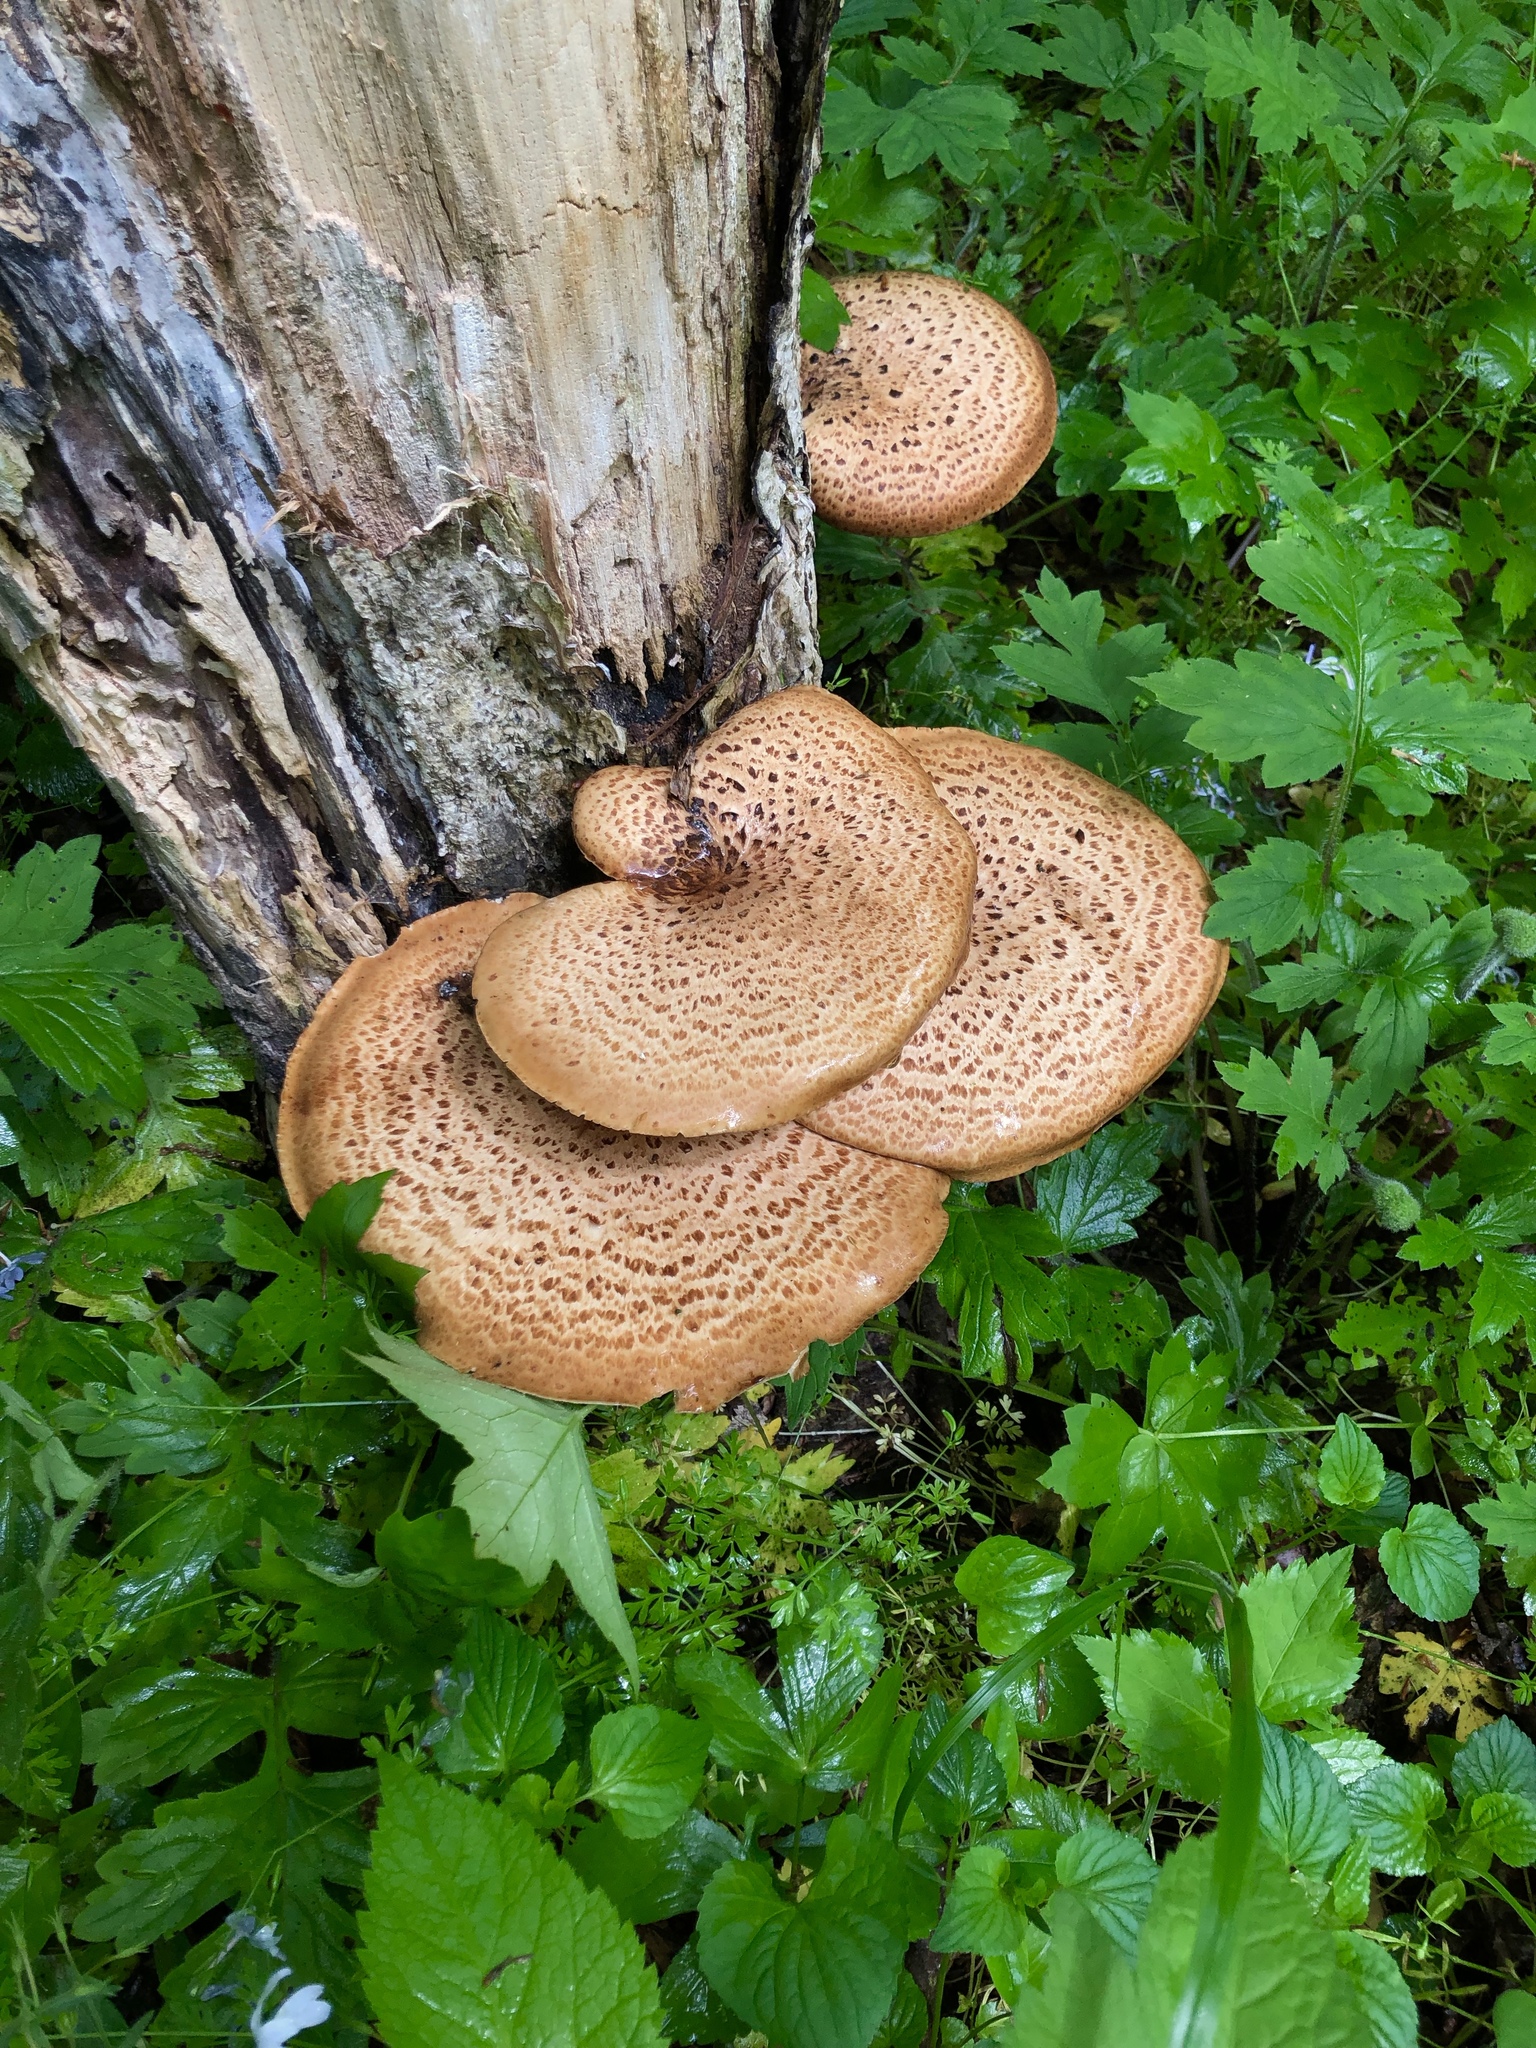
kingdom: Fungi
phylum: Basidiomycota
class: Agaricomycetes
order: Polyporales
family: Polyporaceae
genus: Cerioporus
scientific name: Cerioporus squamosus
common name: Dryad's saddle
